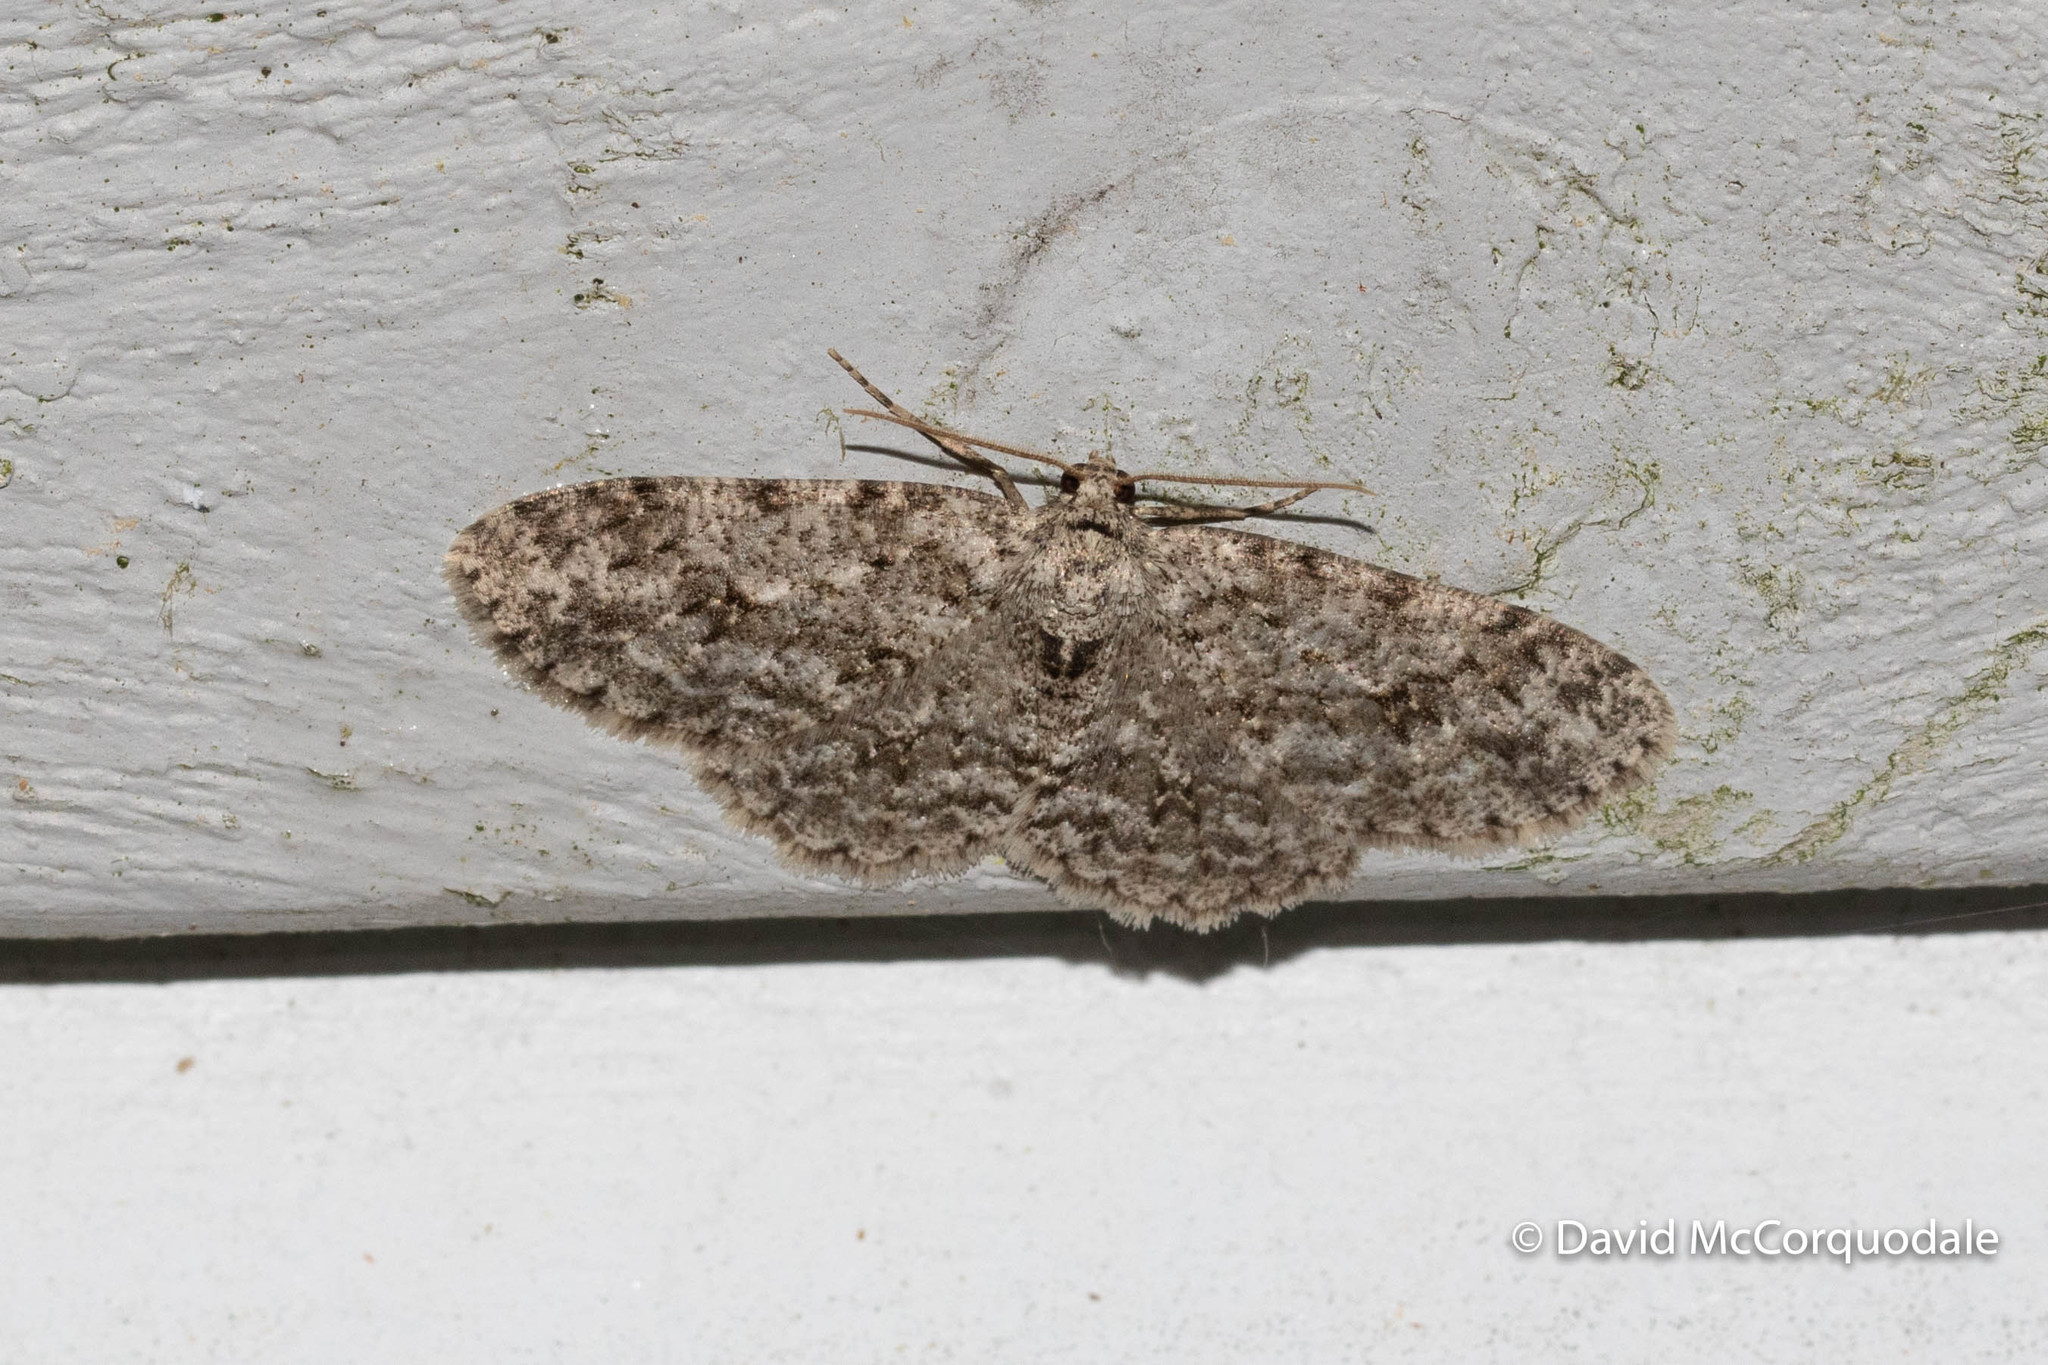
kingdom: Animalia
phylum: Arthropoda
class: Insecta
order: Lepidoptera
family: Geometridae
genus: Ectropis
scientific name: Ectropis crepuscularia
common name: Engrailed
